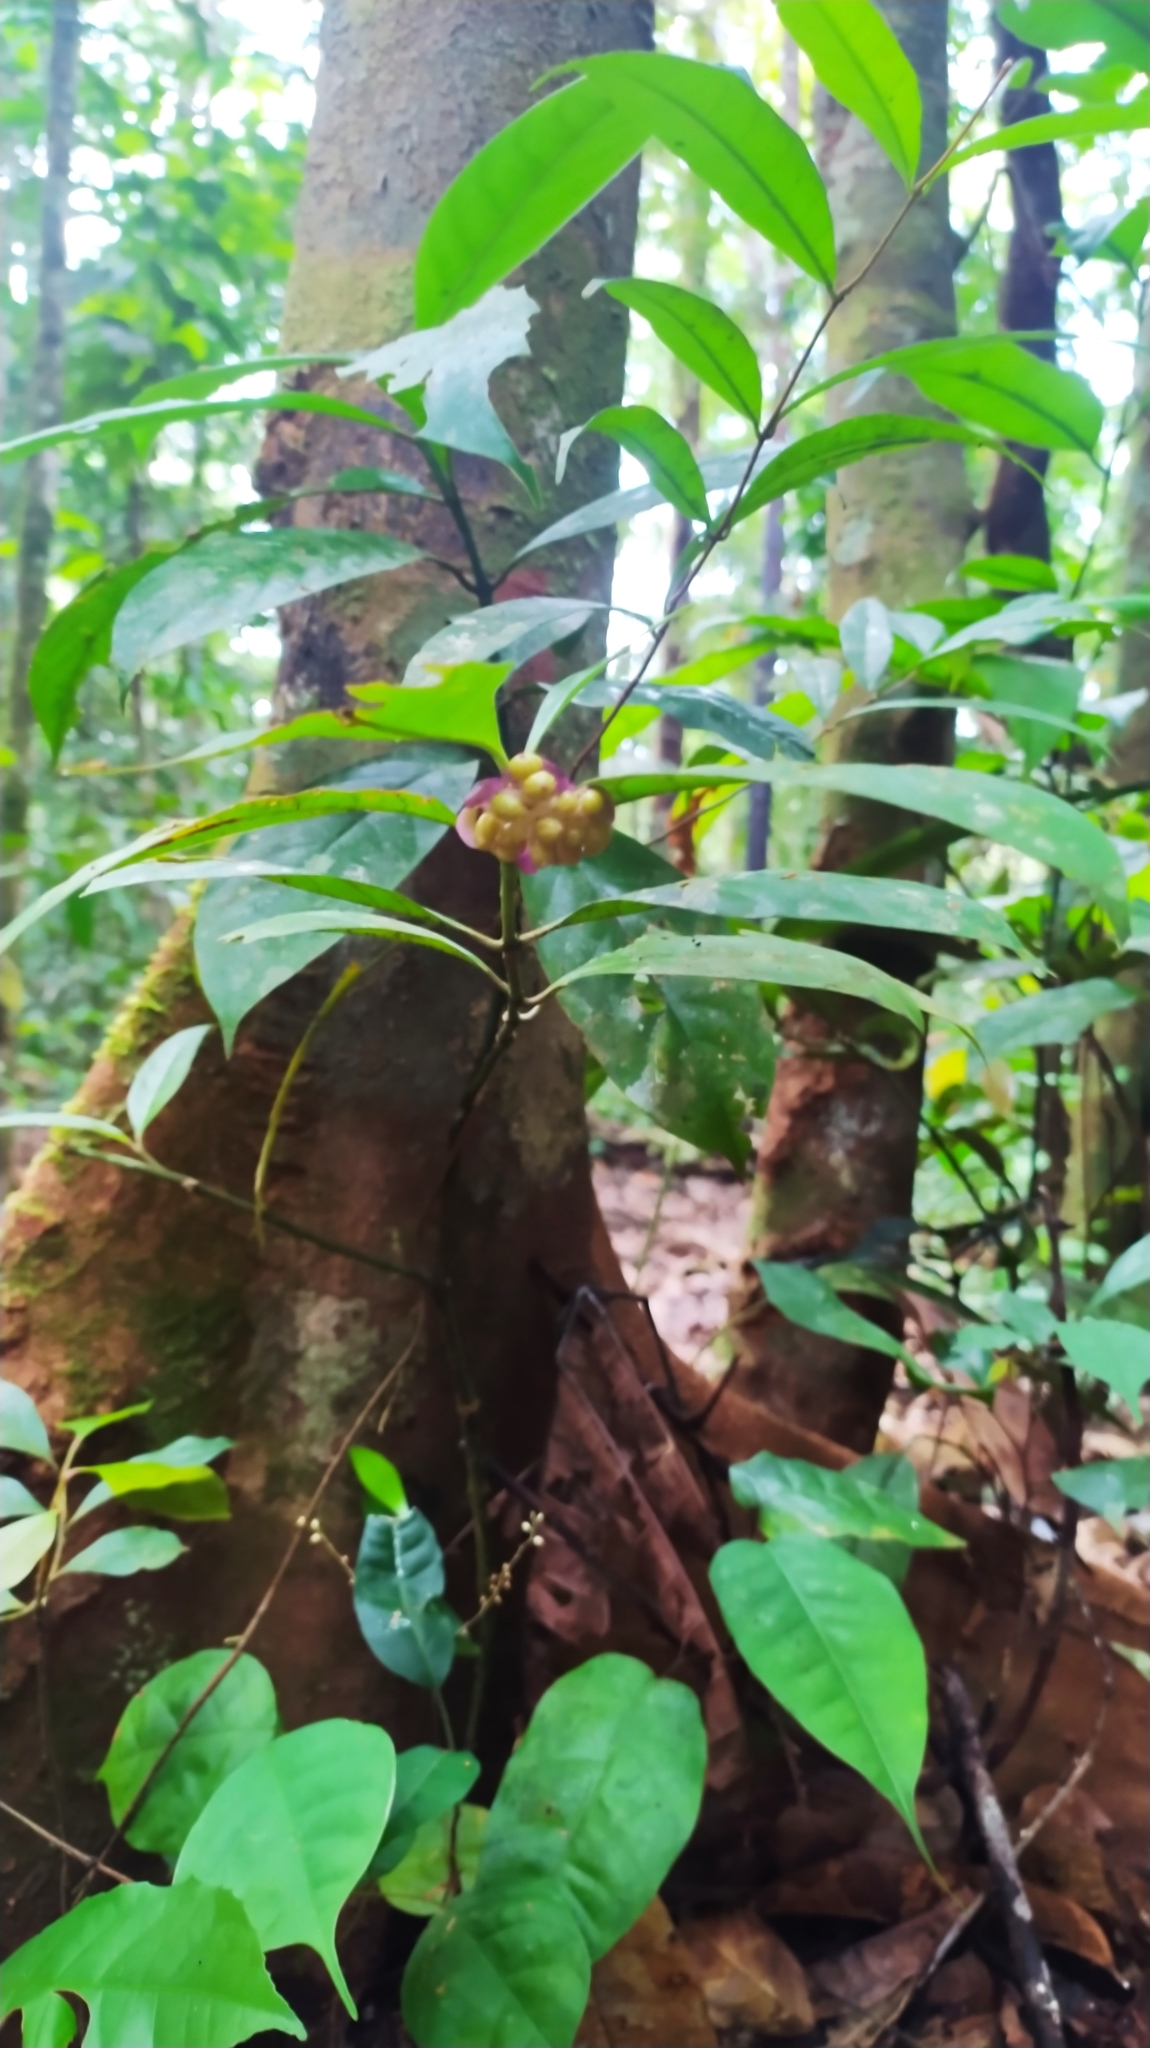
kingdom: Plantae
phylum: Tracheophyta
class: Magnoliopsida
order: Gentianales
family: Rubiaceae
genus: Palicourea
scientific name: Palicourea dichotoma
